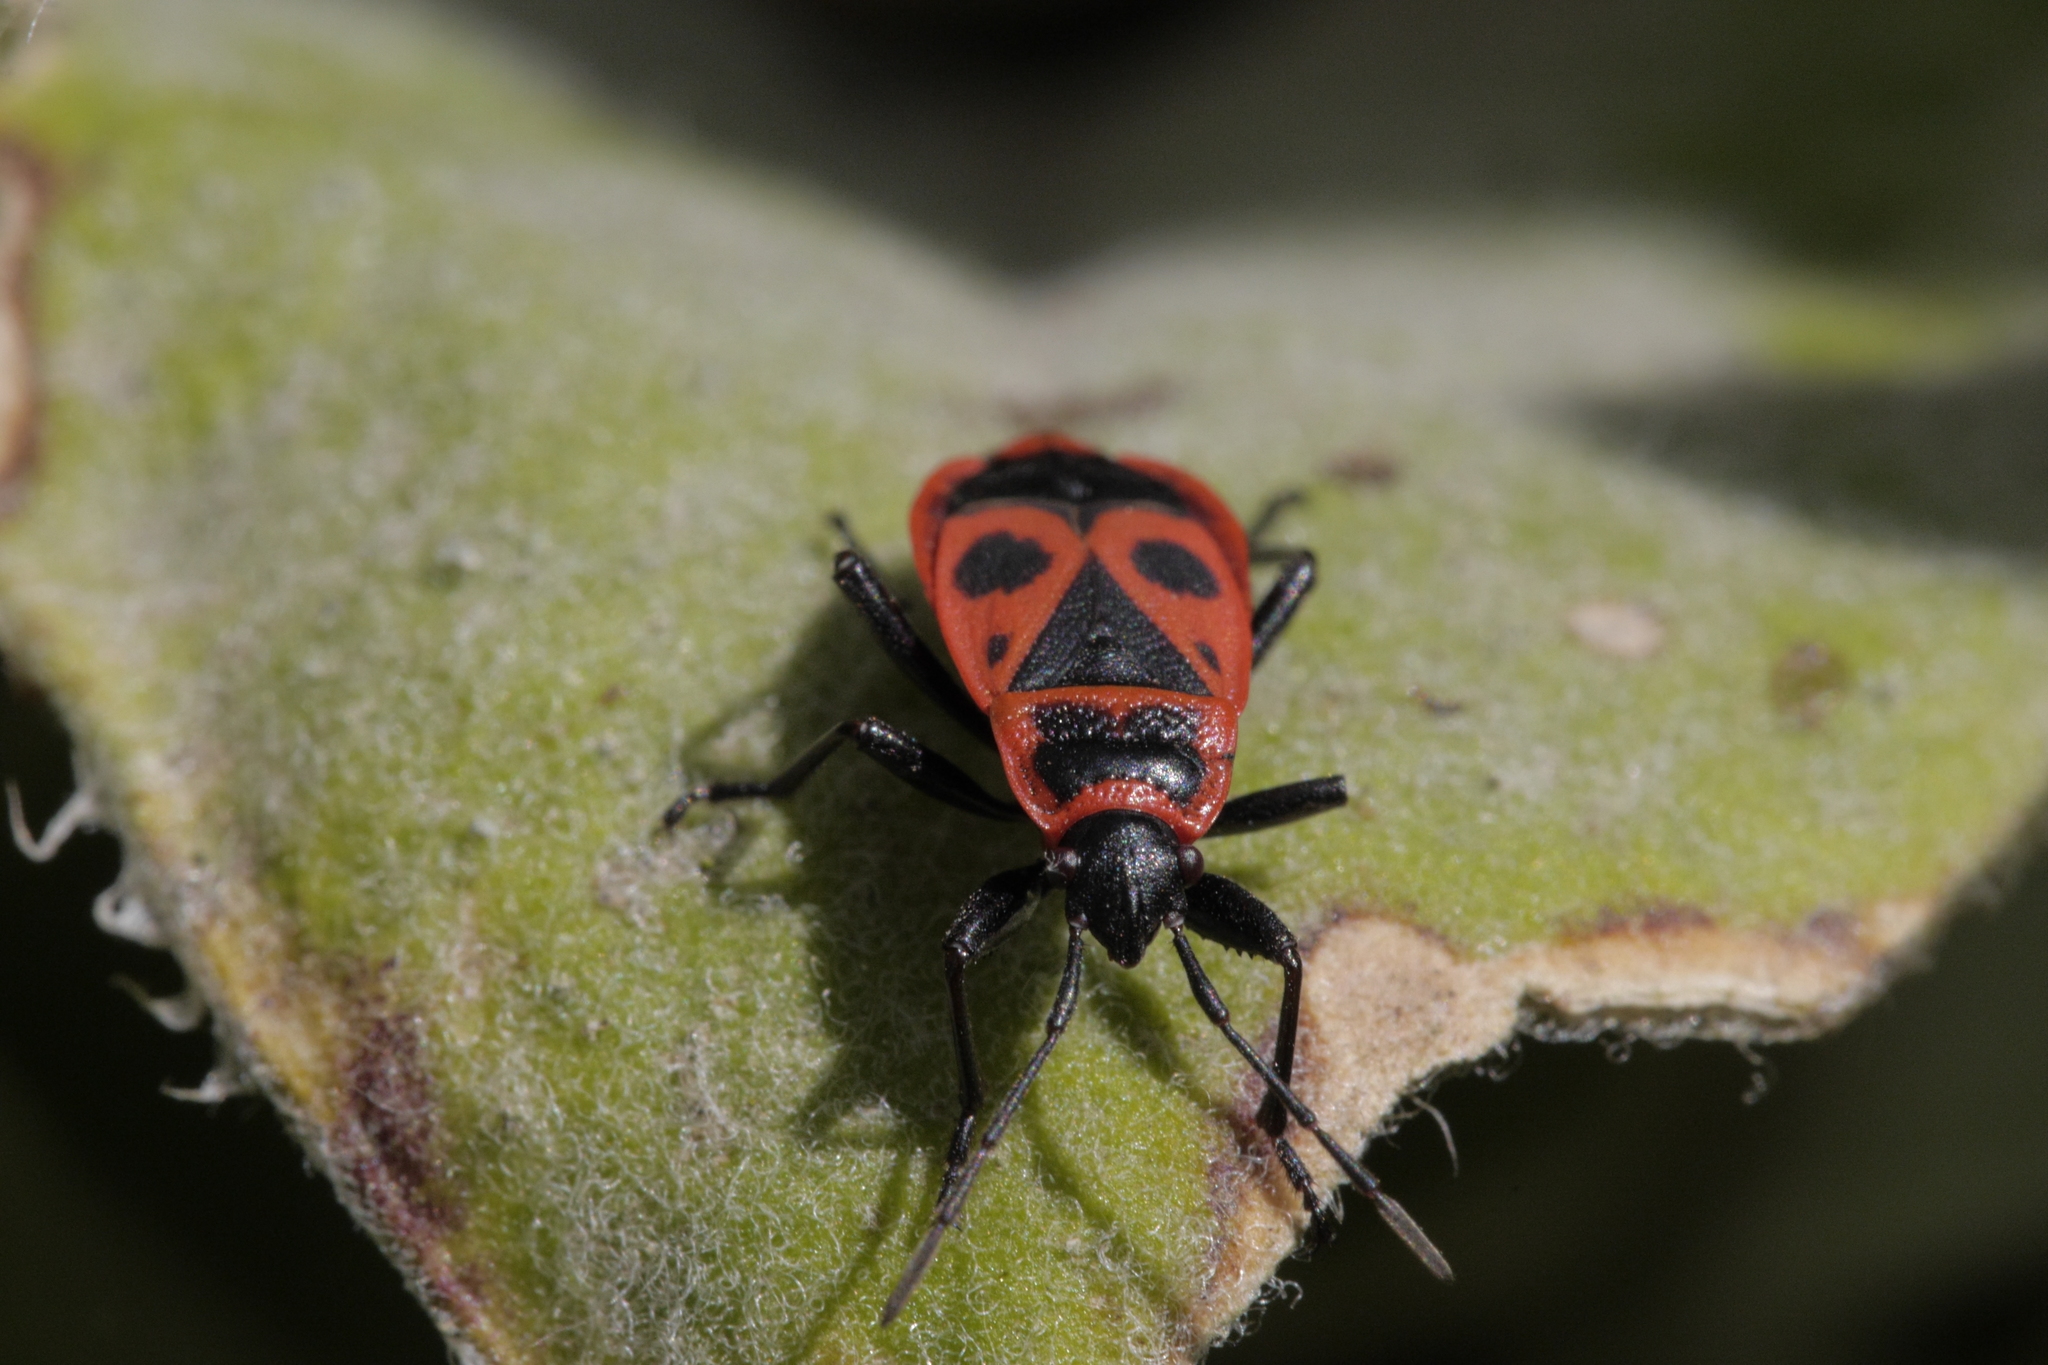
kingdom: Animalia
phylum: Arthropoda
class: Insecta
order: Hemiptera
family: Pyrrhocoridae
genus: Pyrrhocoris
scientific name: Pyrrhocoris apterus
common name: Firebug
